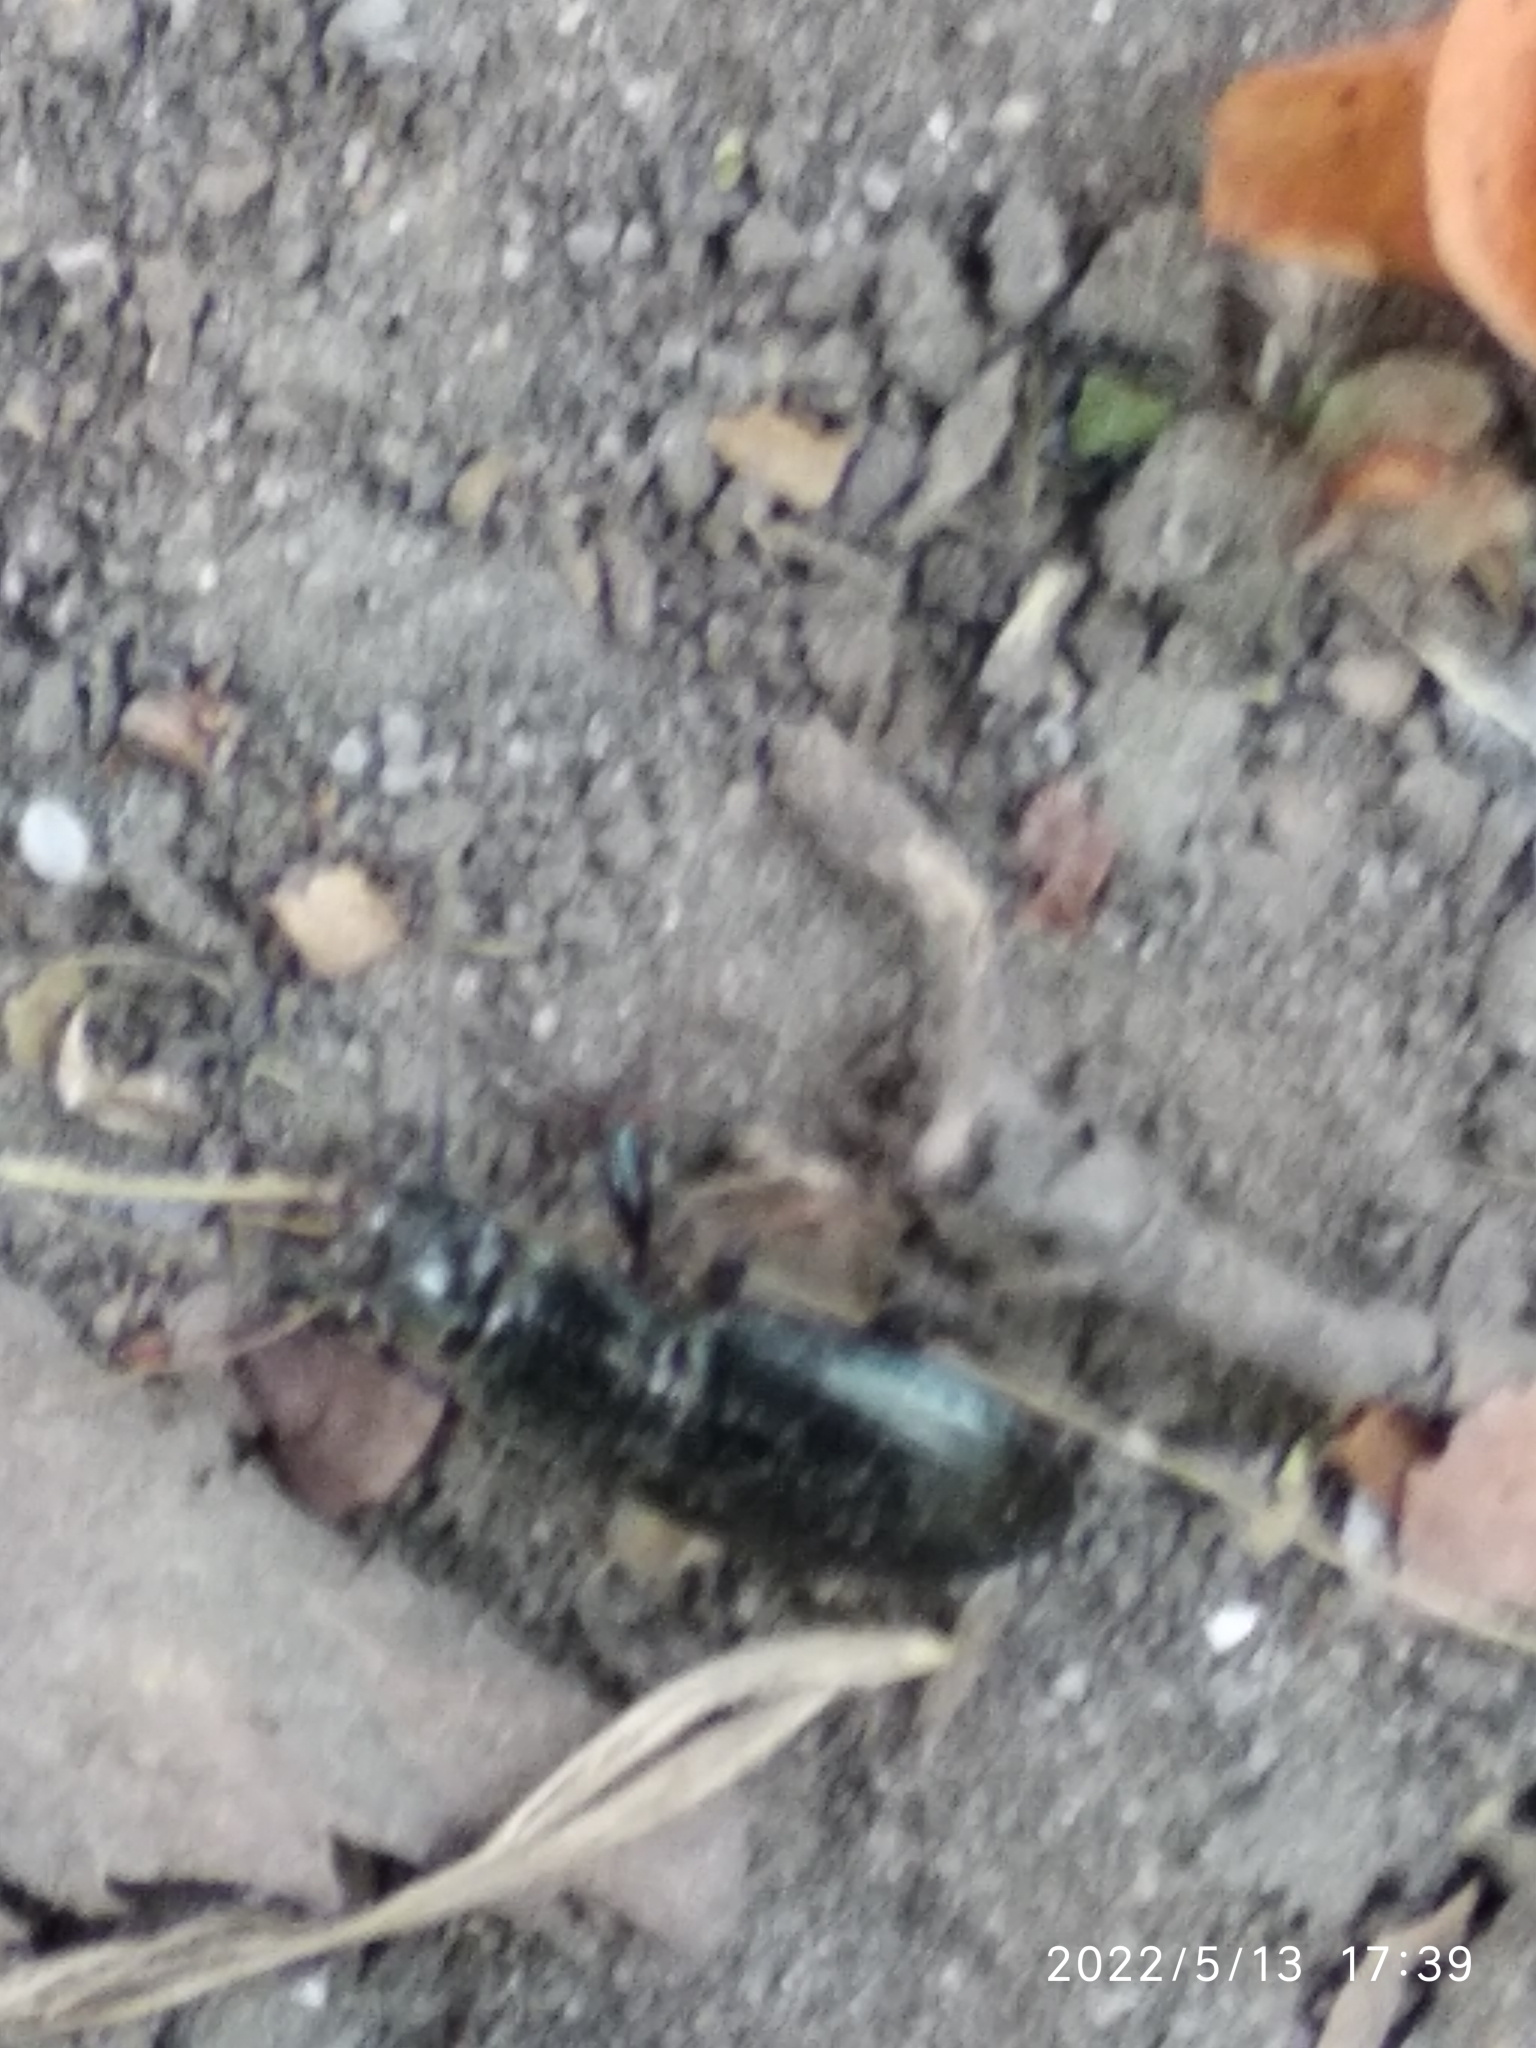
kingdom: Animalia
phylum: Arthropoda
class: Insecta
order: Coleoptera
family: Carabidae
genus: Pterostichus
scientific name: Pterostichus oblongopunctatus
